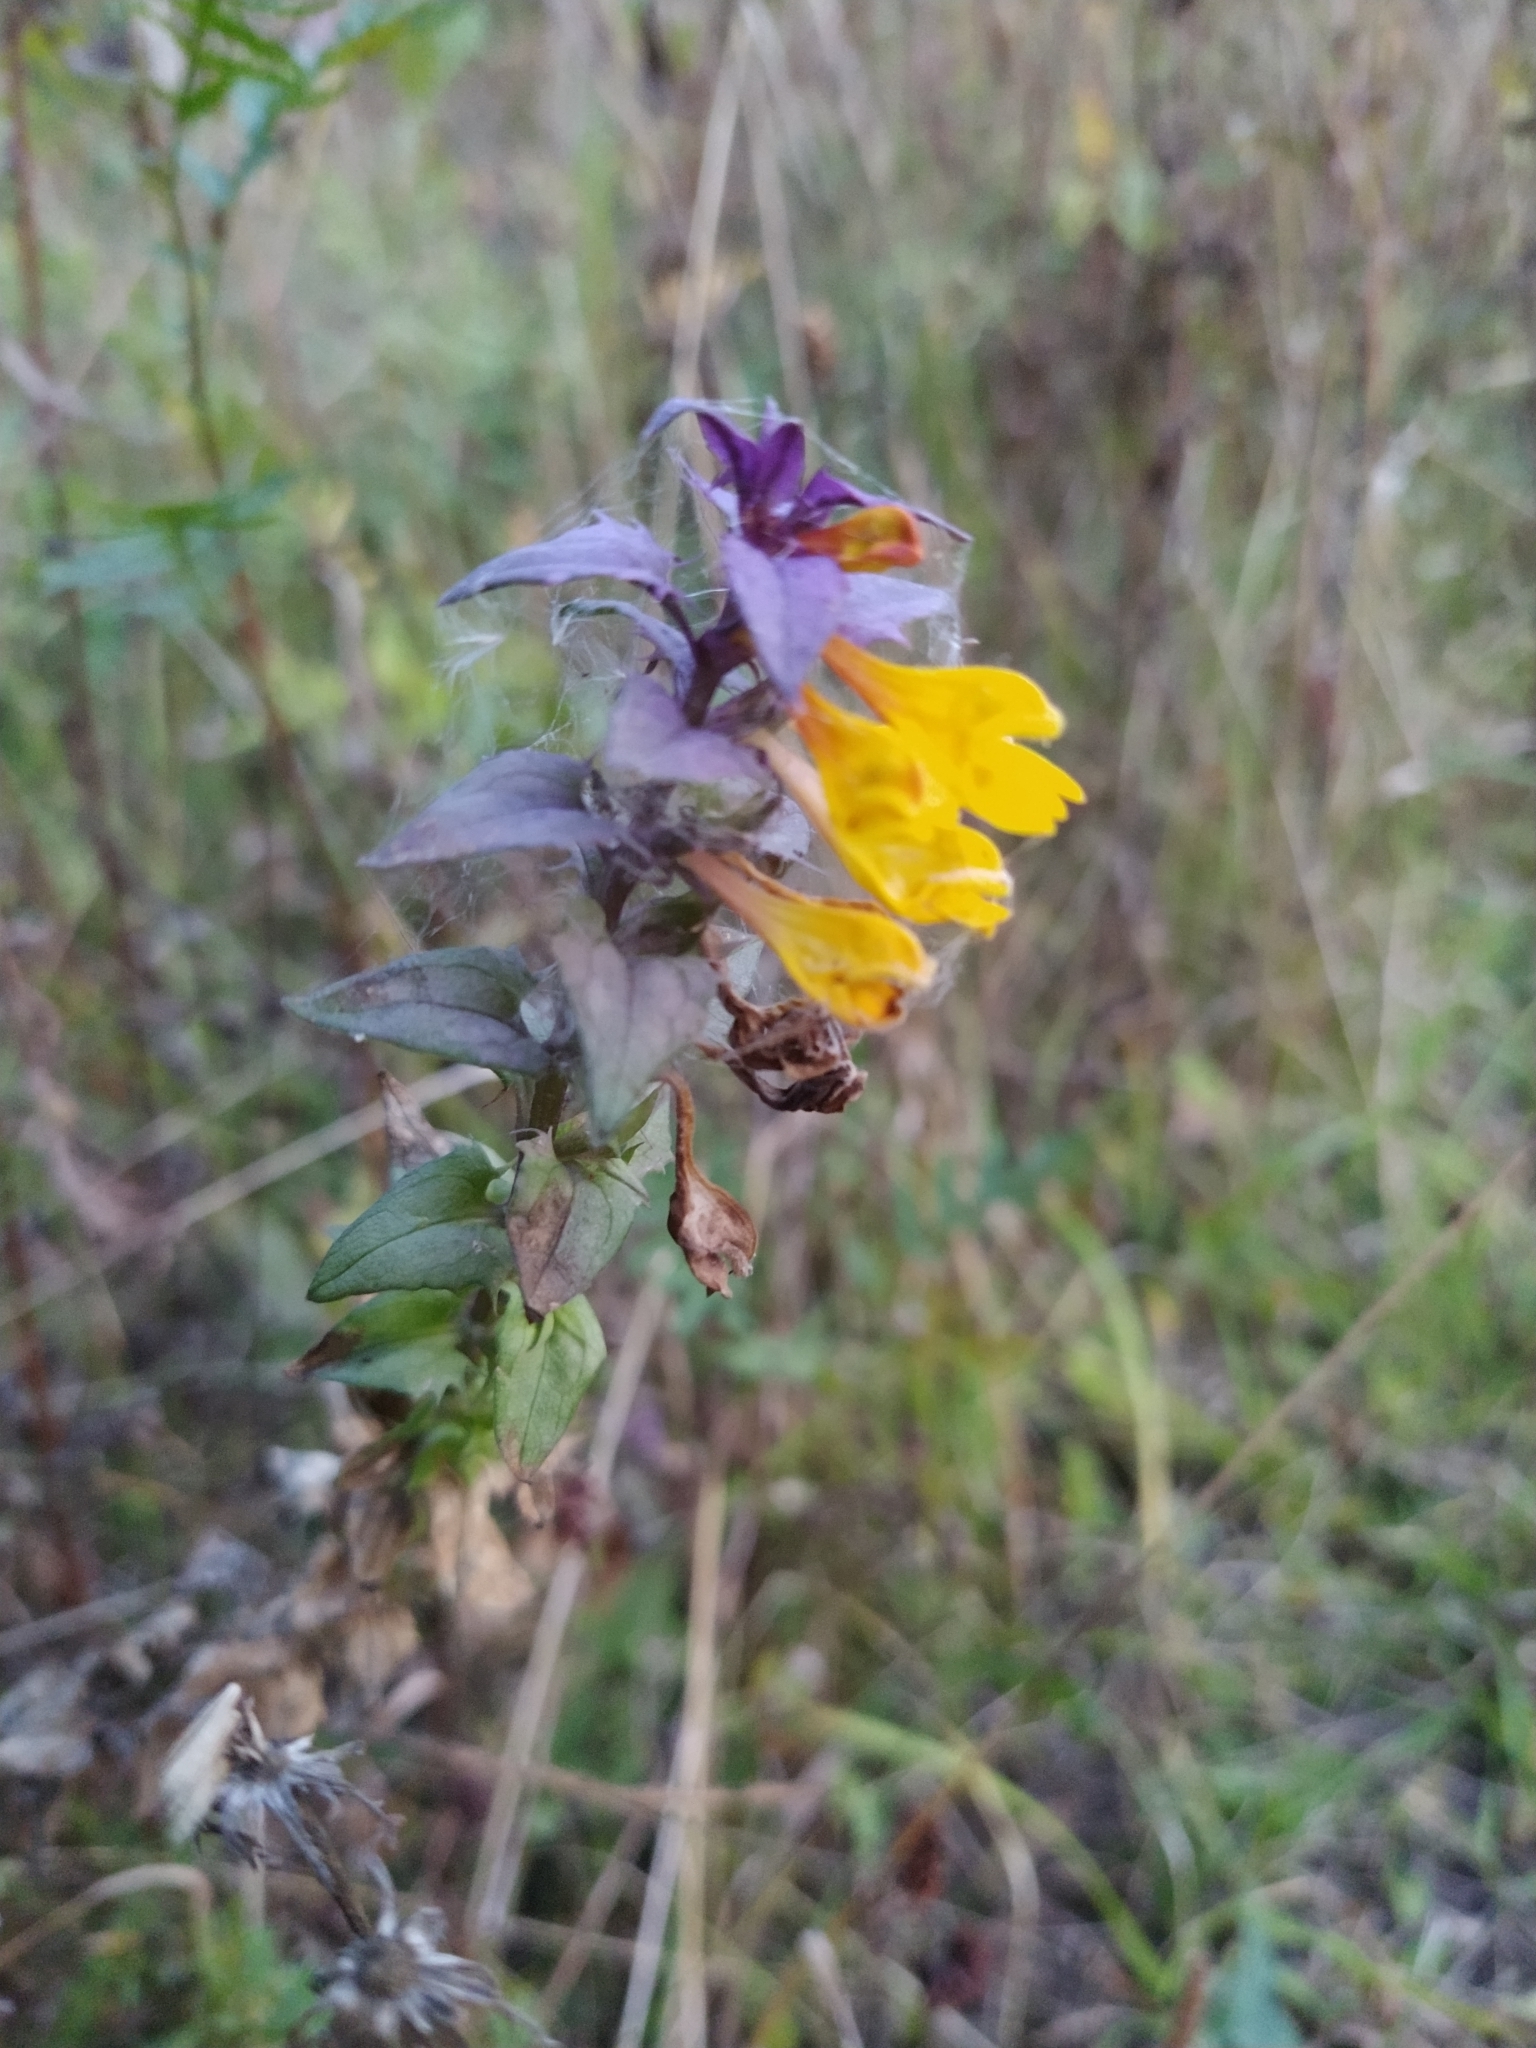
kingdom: Plantae
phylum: Tracheophyta
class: Magnoliopsida
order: Lamiales
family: Orobanchaceae
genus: Melampyrum
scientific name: Melampyrum nemorosum
